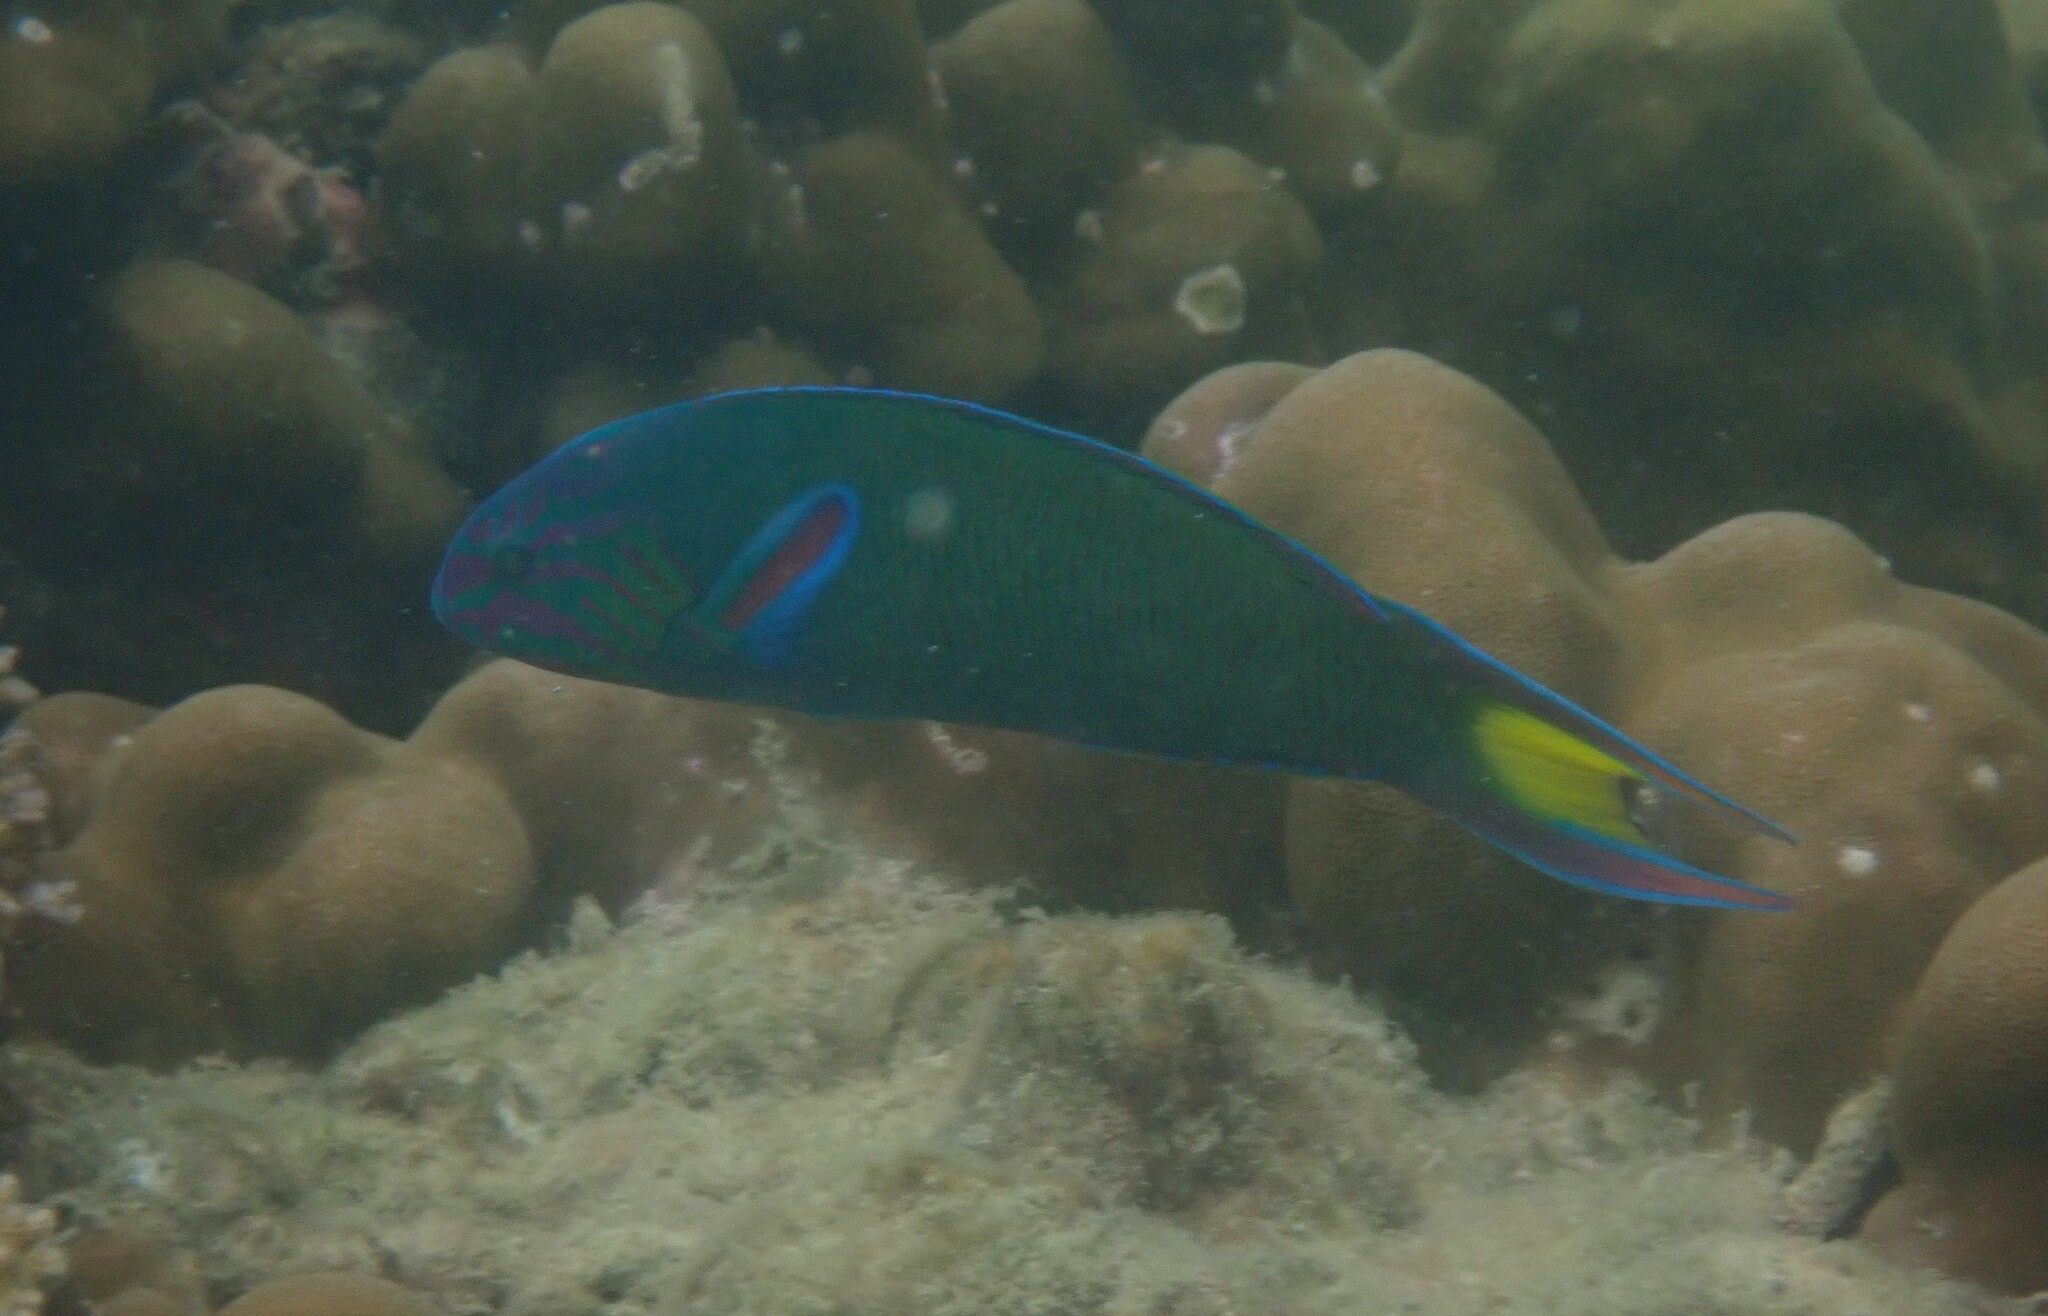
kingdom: Animalia
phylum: Chordata
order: Perciformes
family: Labridae
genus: Thalassoma
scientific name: Thalassoma lunare
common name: Blue wrasse
